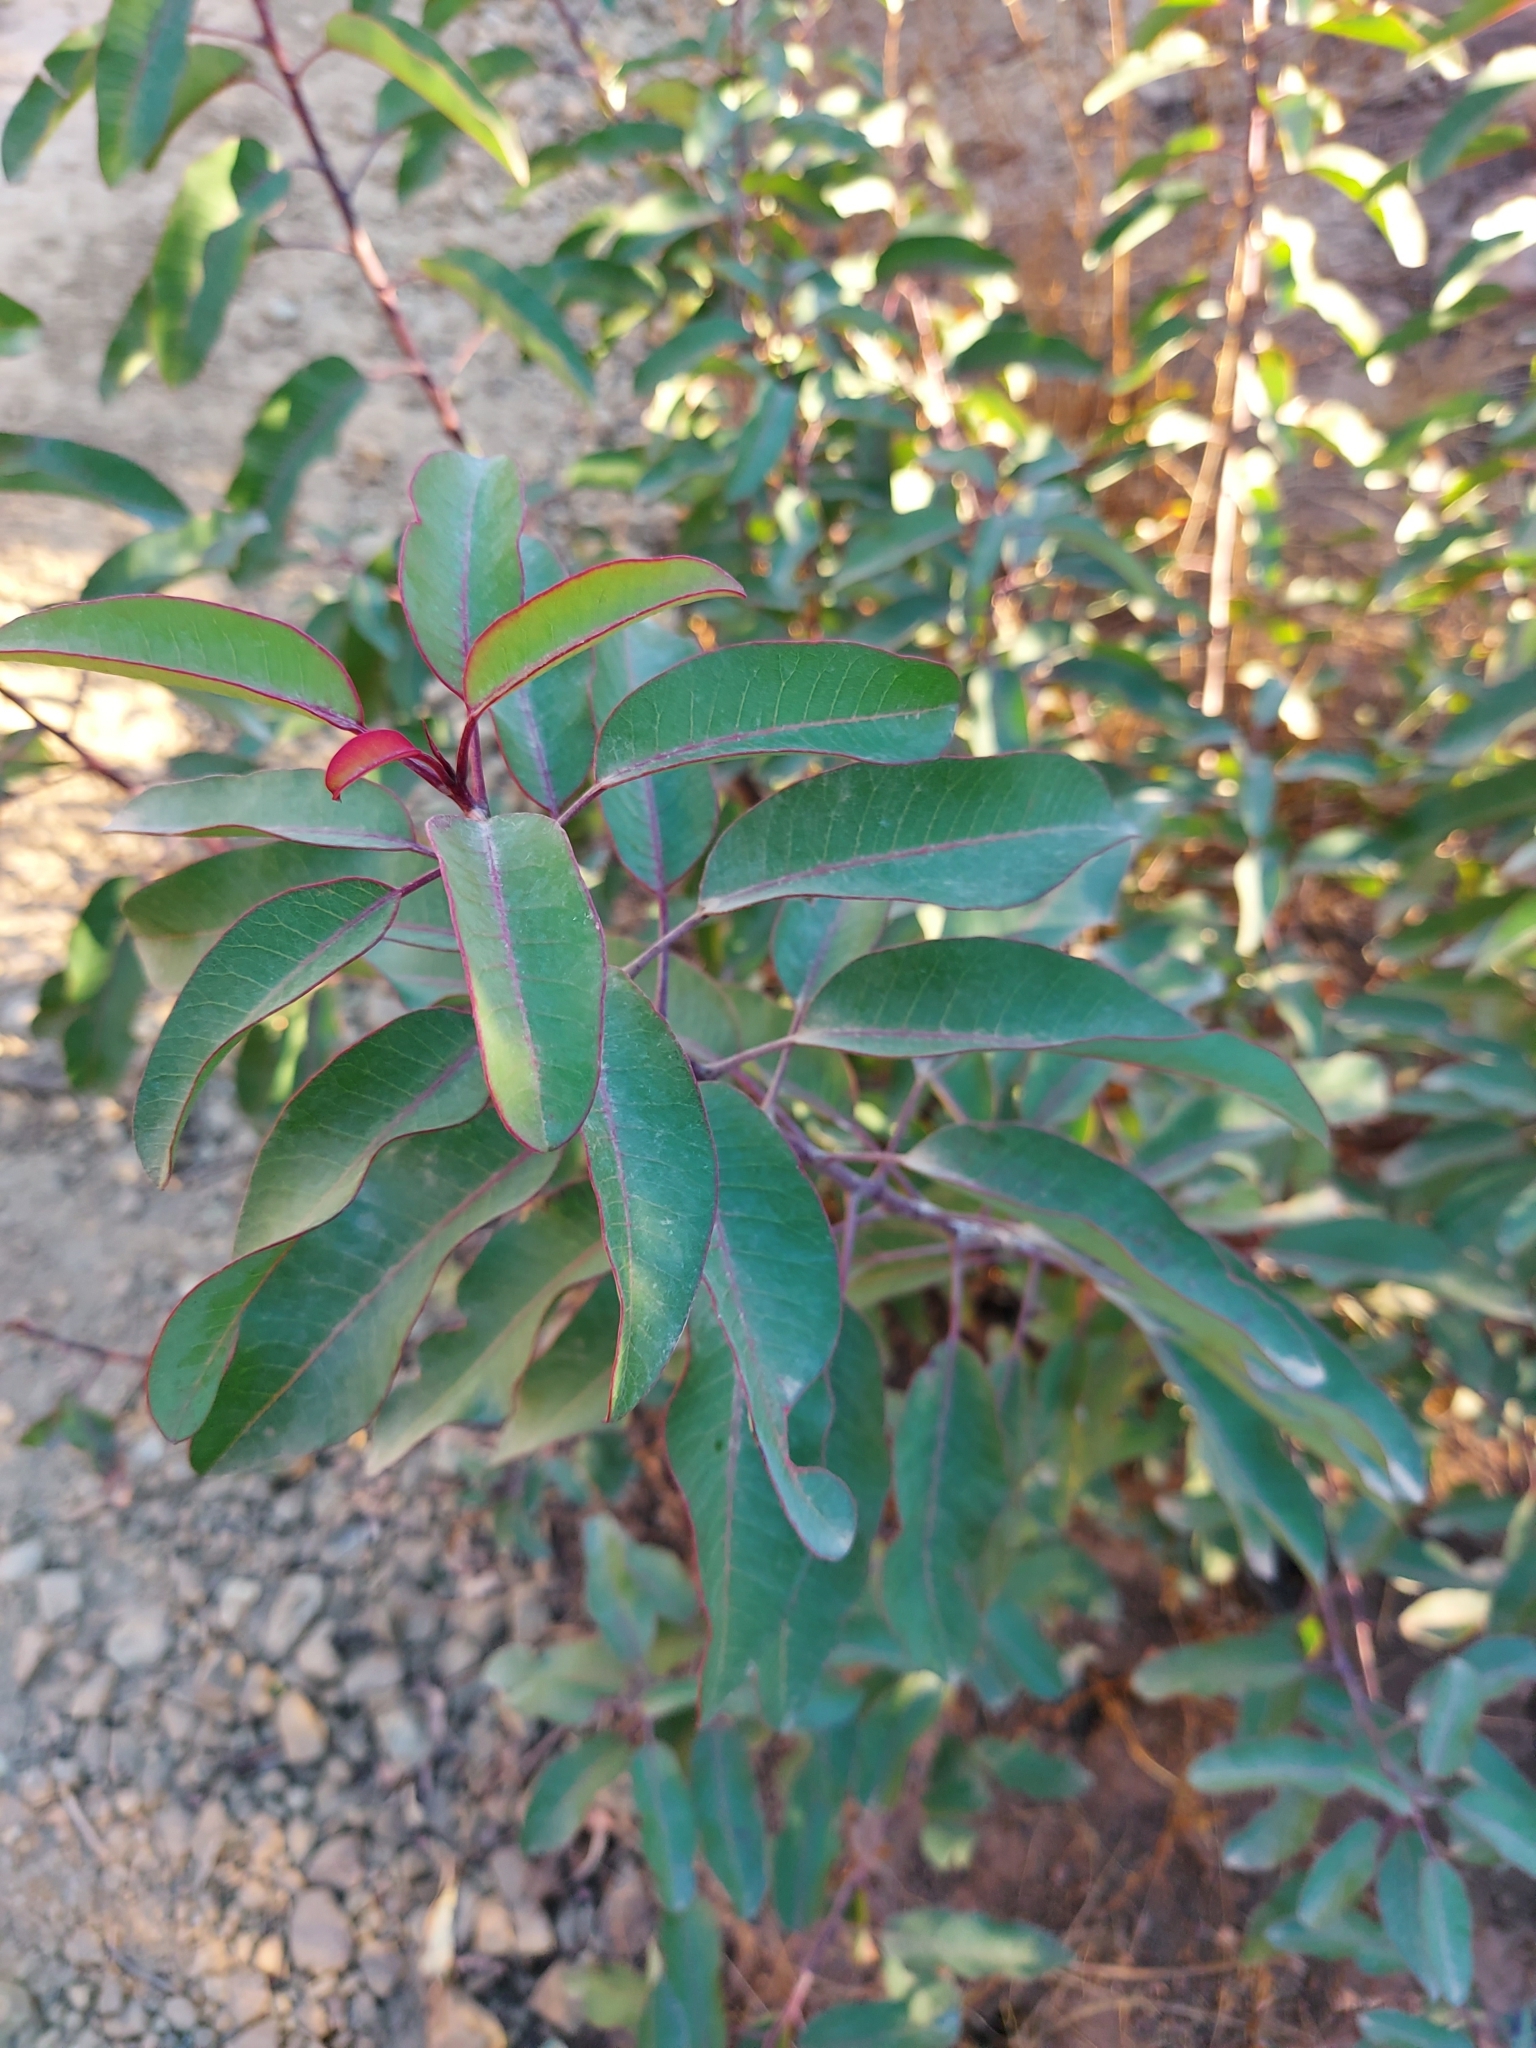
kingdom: Plantae
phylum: Tracheophyta
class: Magnoliopsida
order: Sapindales
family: Anacardiaceae
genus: Malosma
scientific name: Malosma laurina
